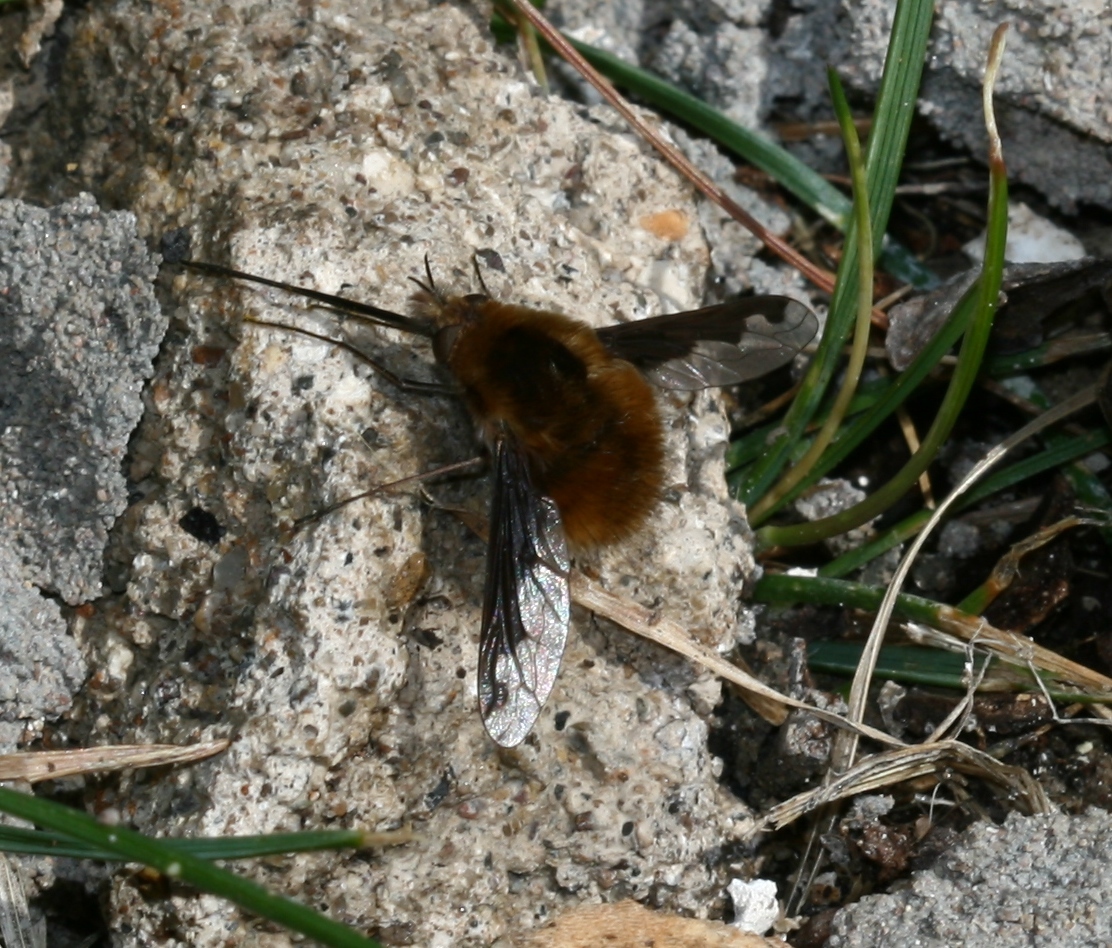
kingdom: Animalia
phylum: Arthropoda
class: Insecta
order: Diptera
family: Bombyliidae
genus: Bombylius
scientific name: Bombylius major
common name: Bee fly
